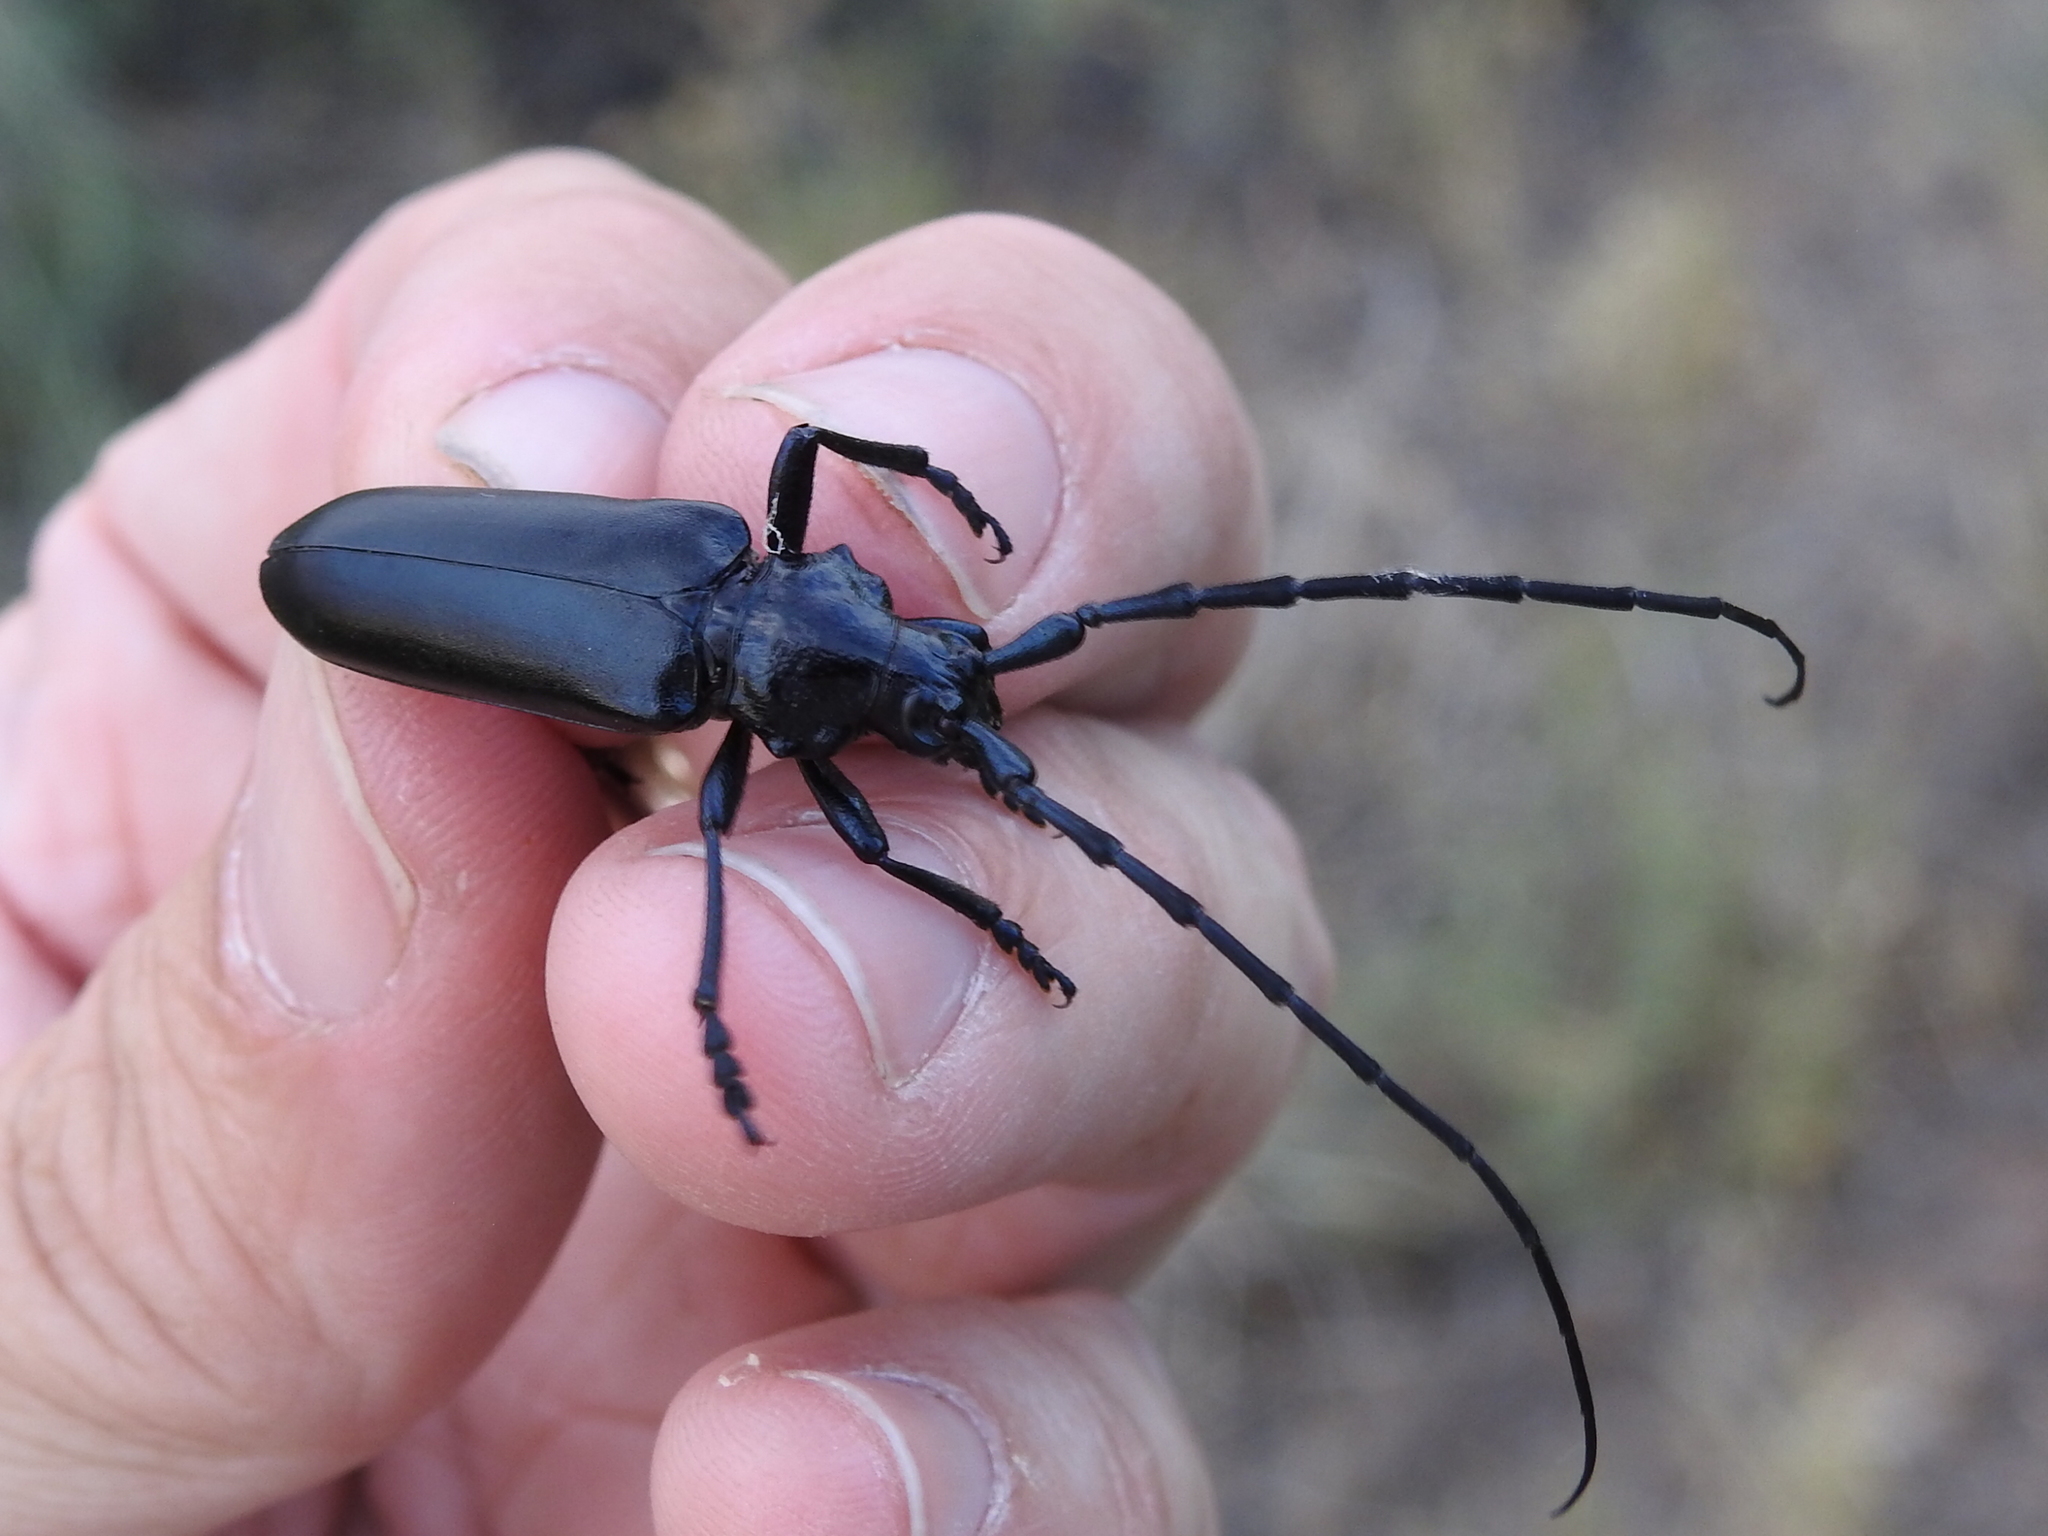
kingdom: Animalia
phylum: Arthropoda
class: Insecta
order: Coleoptera
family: Cerambycidae
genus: Stenaspis
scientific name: Stenaspis solitaria
